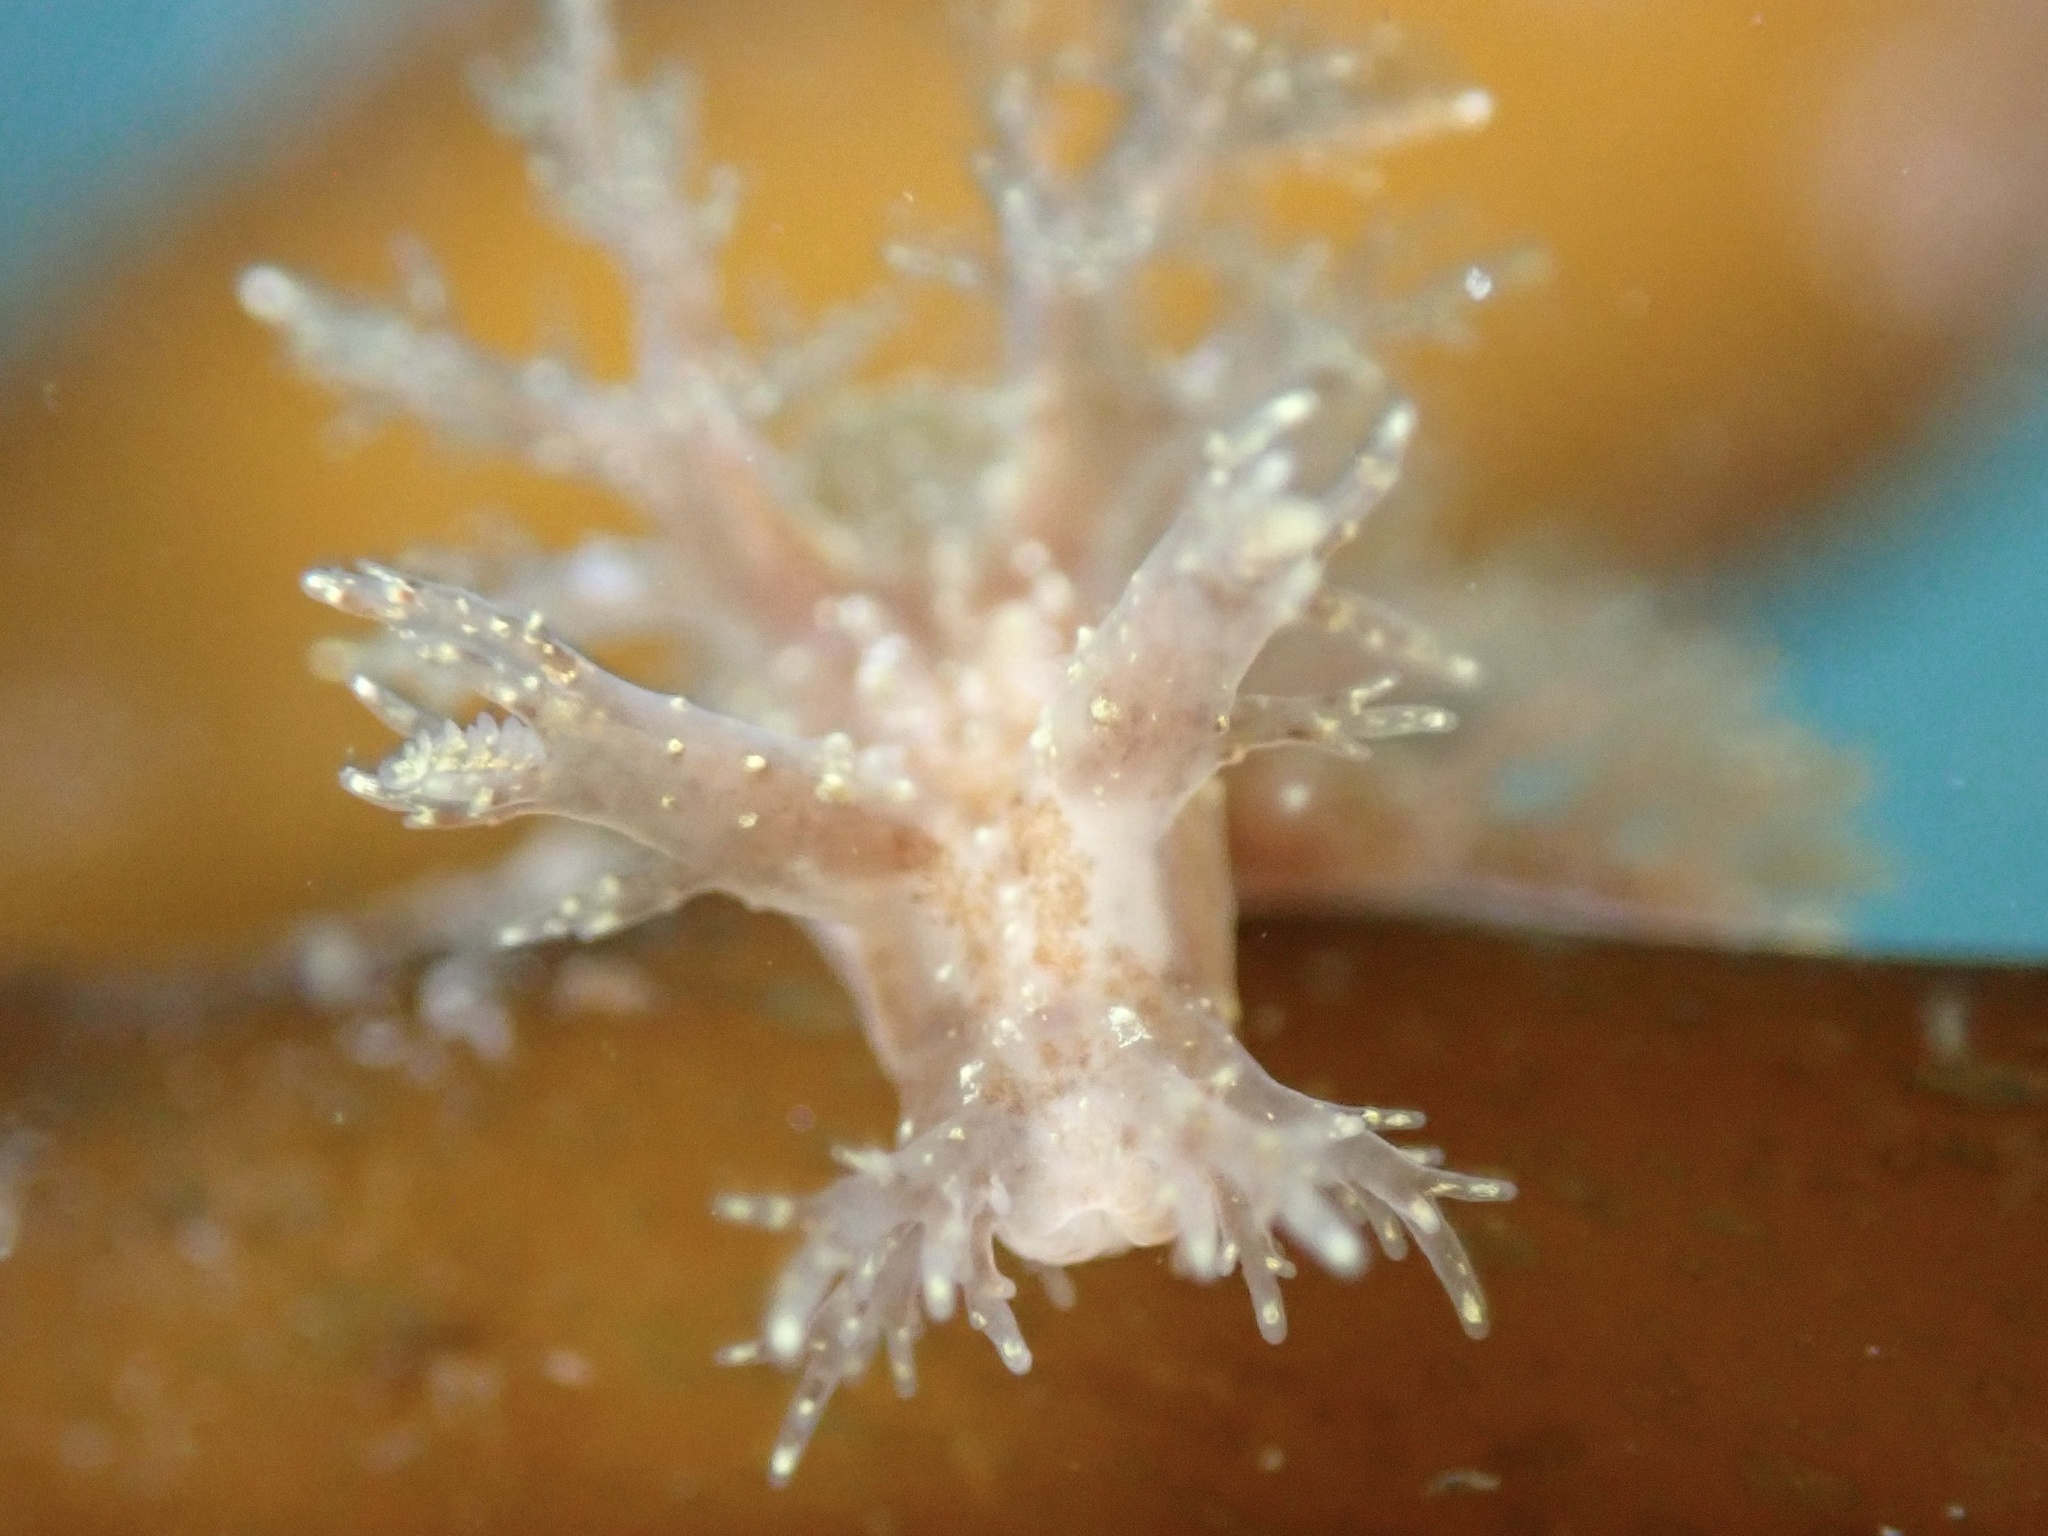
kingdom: Animalia
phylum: Mollusca
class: Gastropoda
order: Nudibranchia
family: Dendronotidae
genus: Dendronotus
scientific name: Dendronotus venustus
